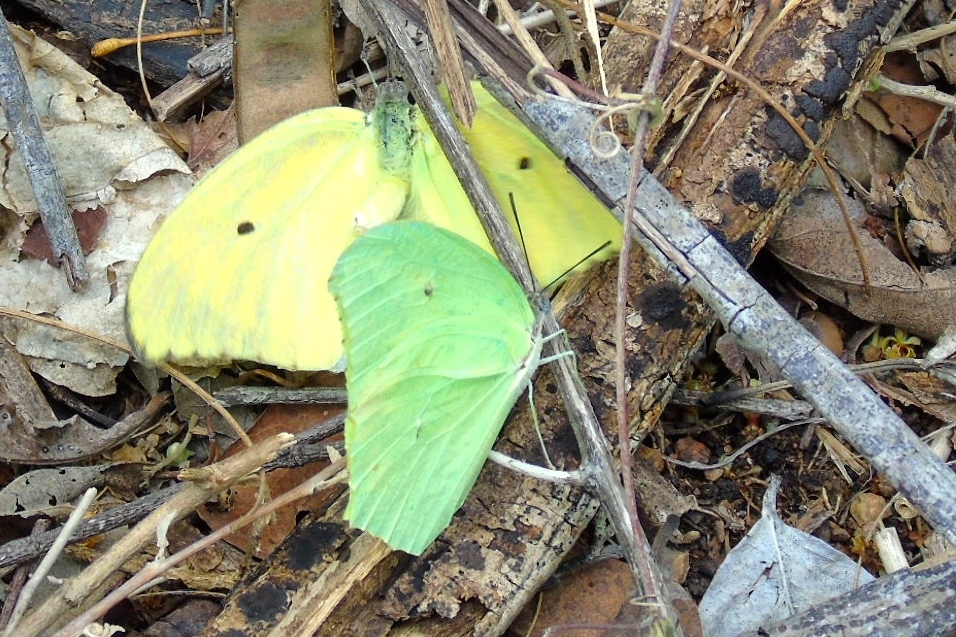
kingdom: Animalia
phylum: Arthropoda
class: Insecta
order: Lepidoptera
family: Pieridae
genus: Anteos
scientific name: Anteos maerula
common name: Angled sulphur
